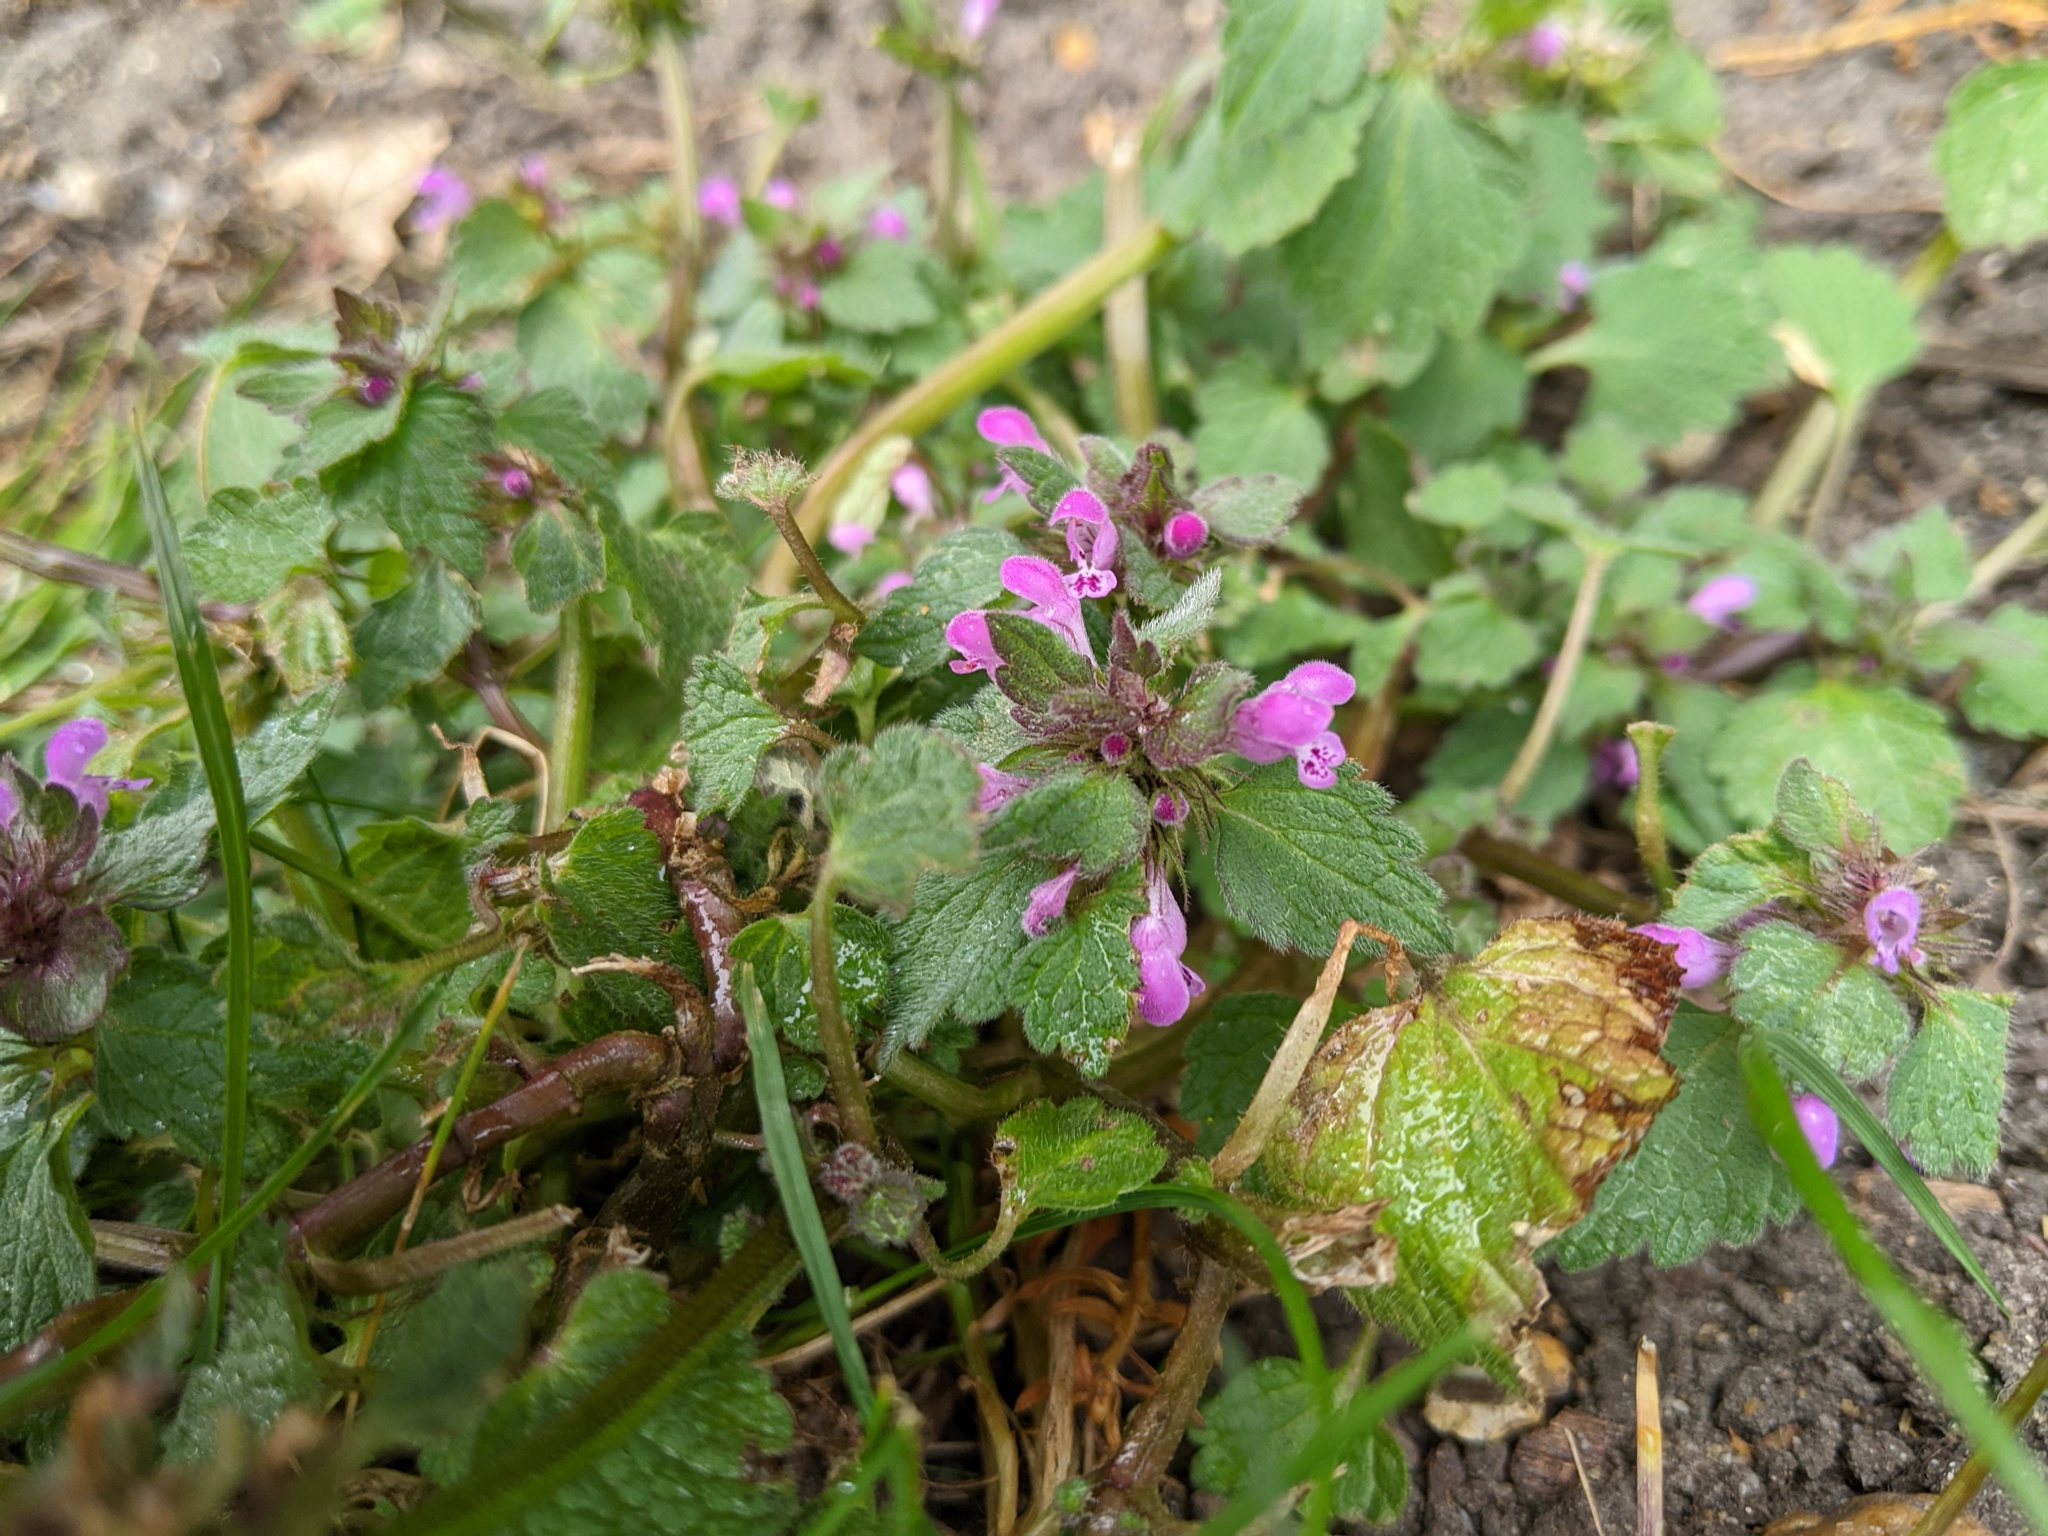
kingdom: Plantae
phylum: Tracheophyta
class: Magnoliopsida
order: Lamiales
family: Lamiaceae
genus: Lamium
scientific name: Lamium purpureum
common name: Red dead-nettle
